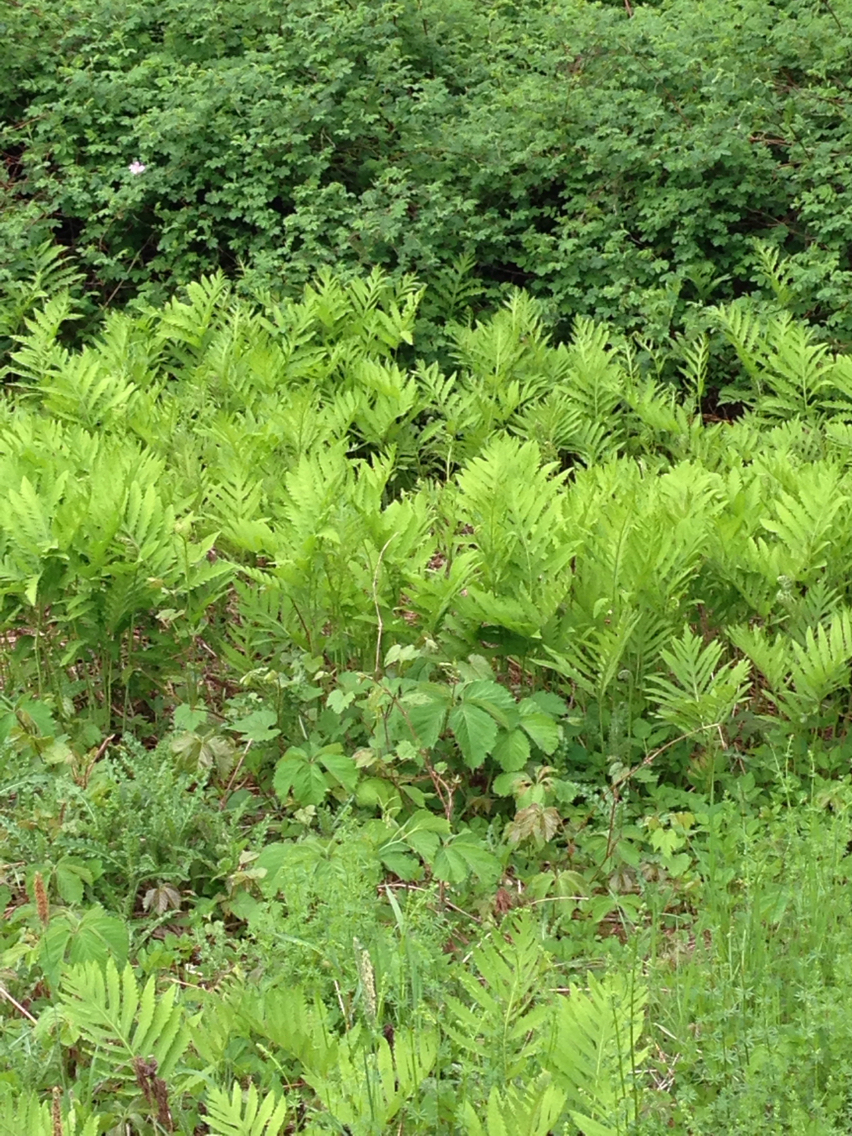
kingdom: Plantae
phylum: Tracheophyta
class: Polypodiopsida
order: Polypodiales
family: Onocleaceae
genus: Onoclea
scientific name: Onoclea sensibilis
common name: Sensitive fern
